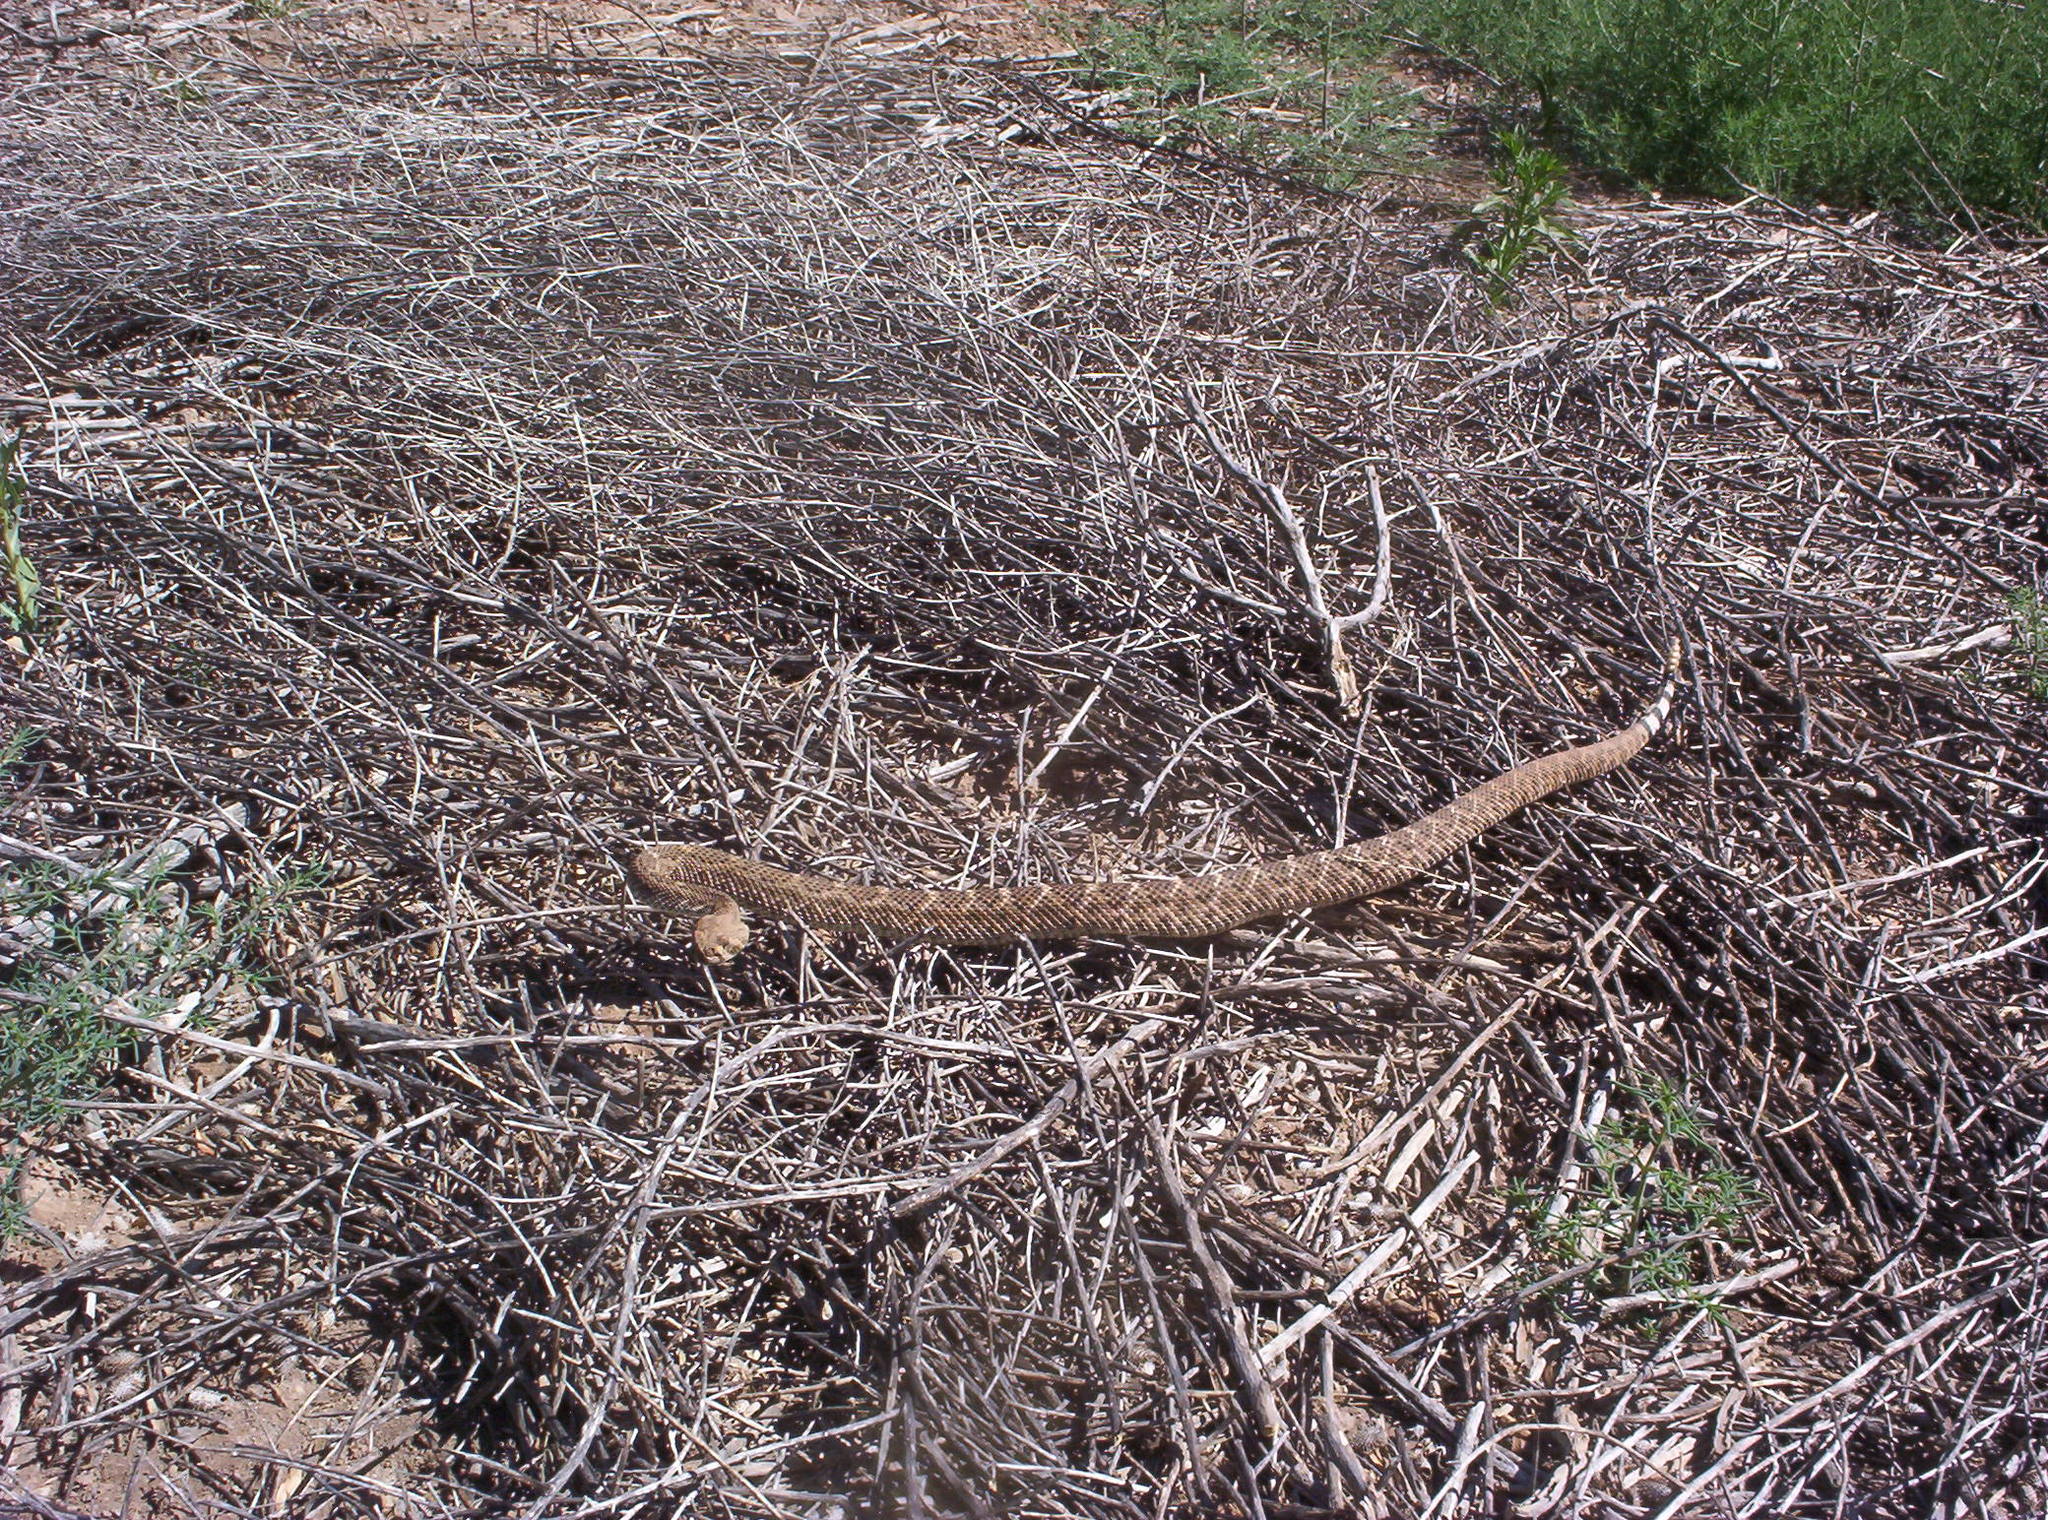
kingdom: Animalia
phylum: Chordata
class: Squamata
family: Viperidae
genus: Crotalus
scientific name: Crotalus atrox
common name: Western diamond-backed rattlesnake
